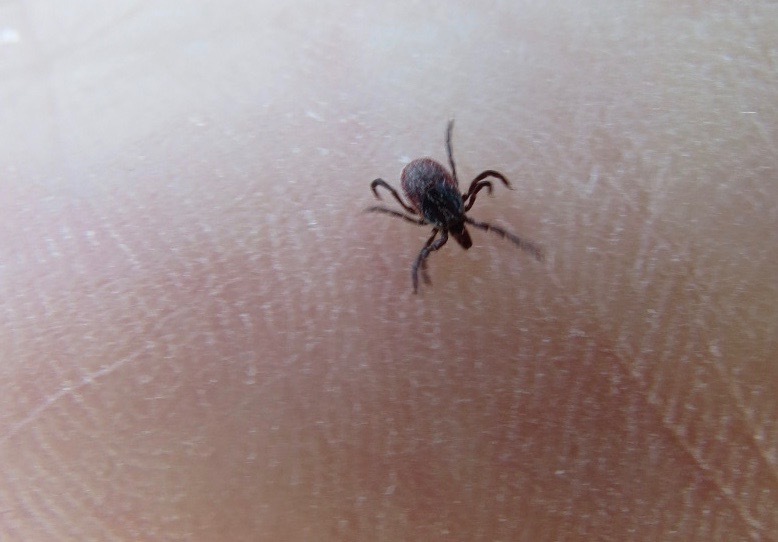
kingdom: Animalia
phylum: Arthropoda
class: Arachnida
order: Ixodida
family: Ixodidae
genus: Ixodes
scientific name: Ixodes pacificus
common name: California black-legged tick
